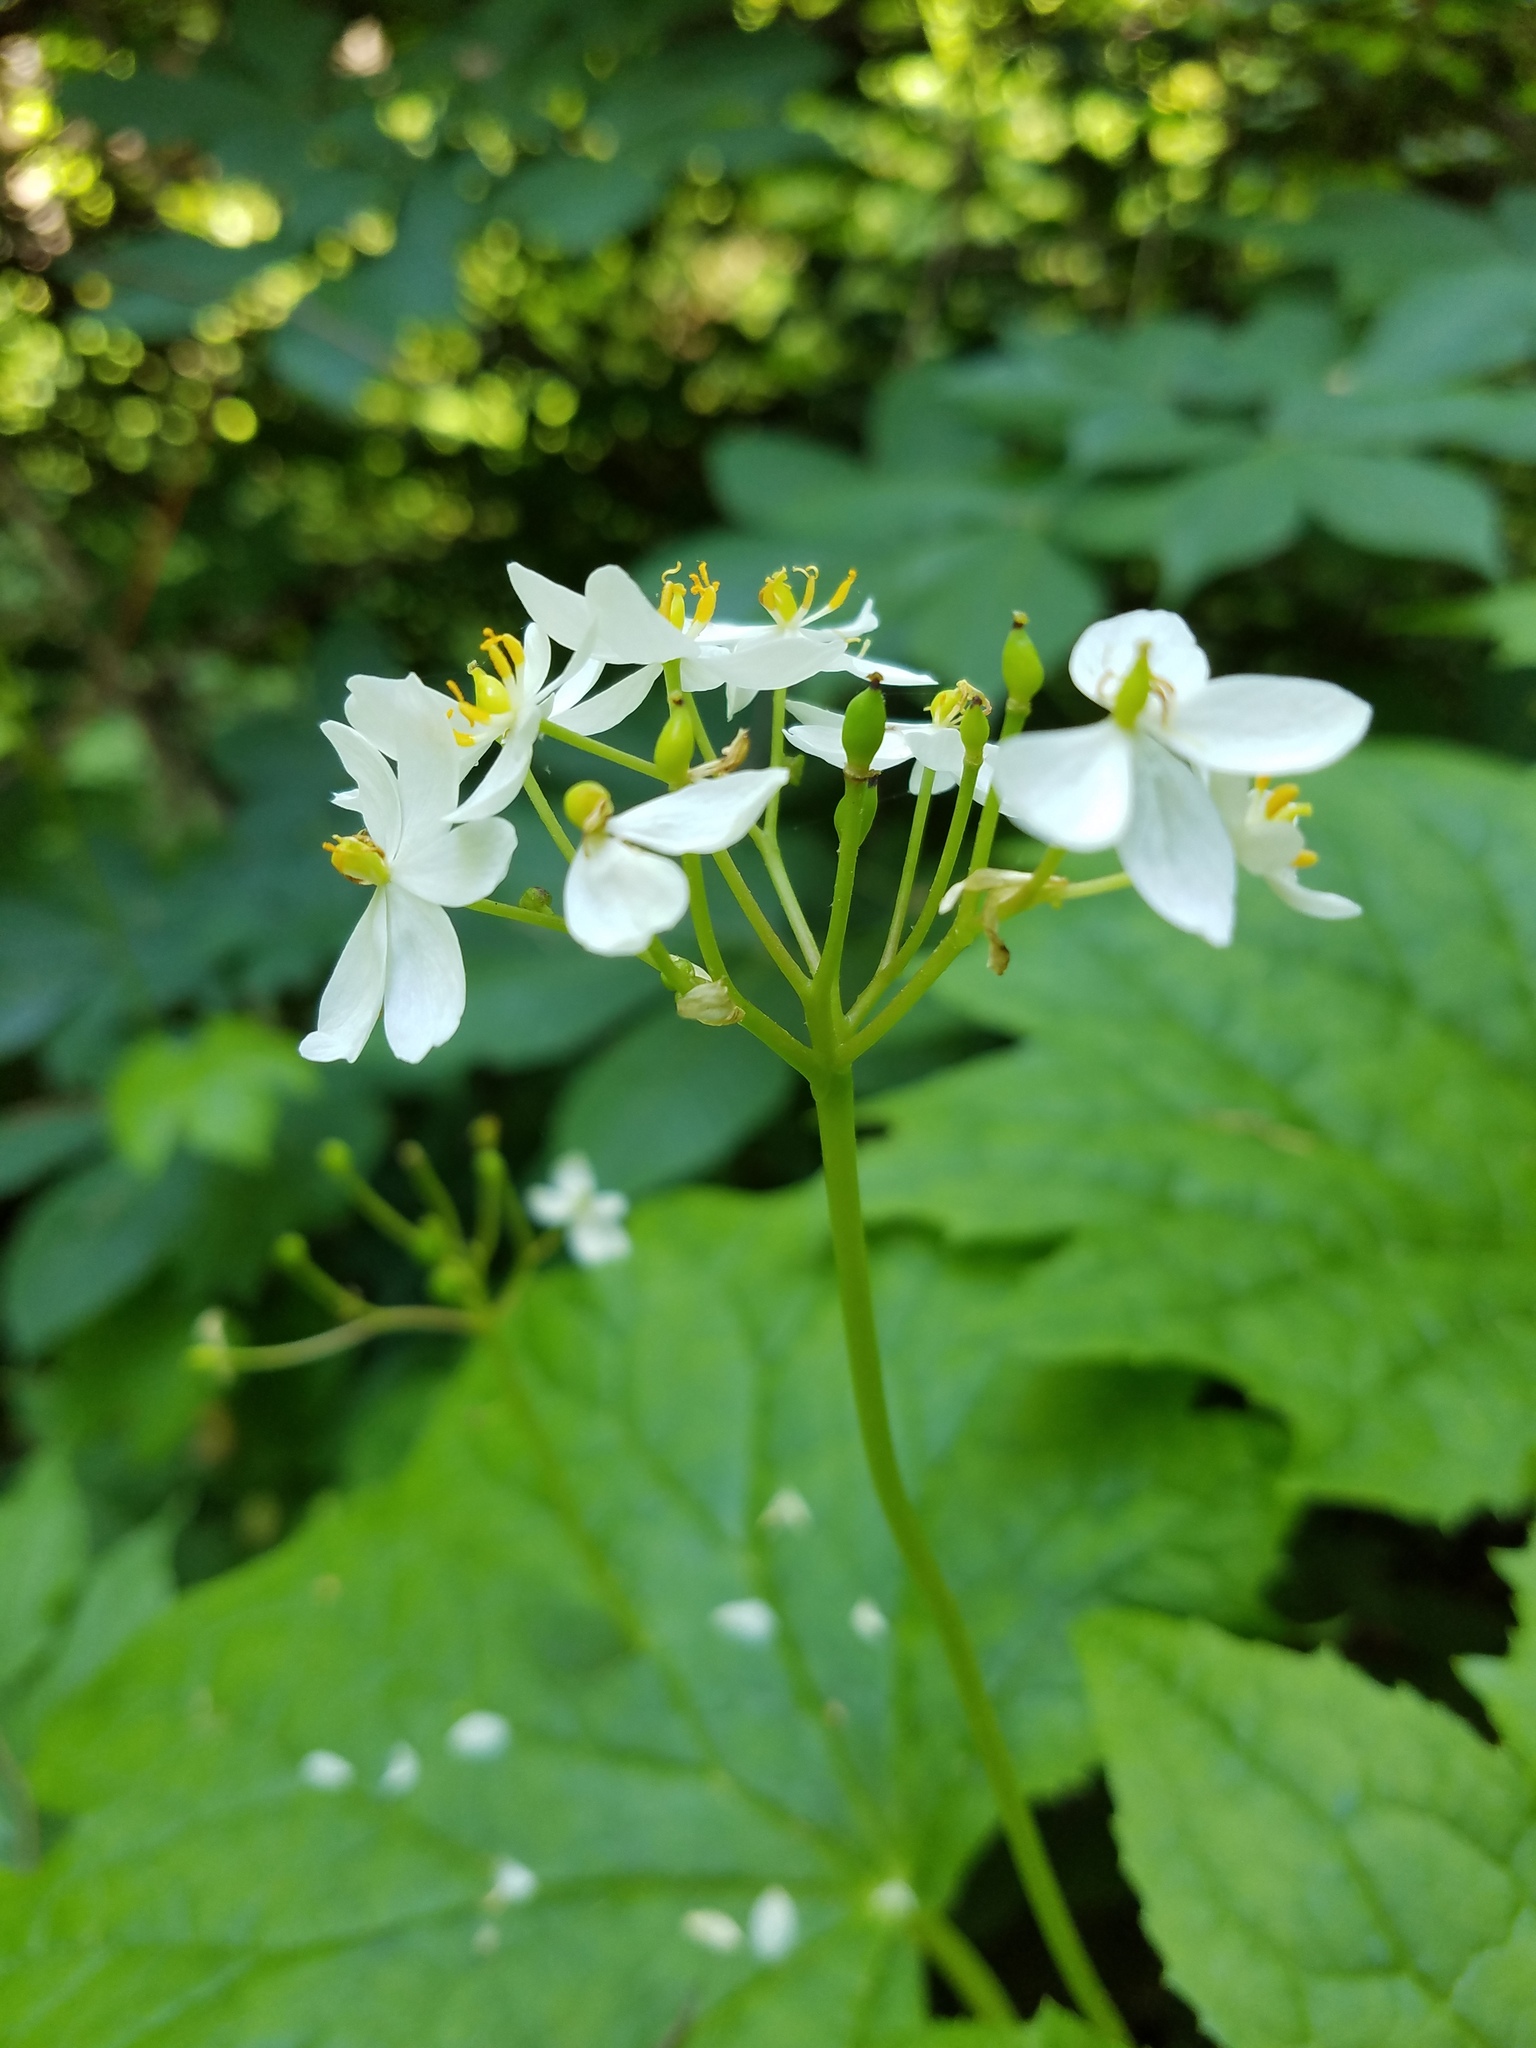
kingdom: Plantae
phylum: Tracheophyta
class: Magnoliopsida
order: Ranunculales
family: Berberidaceae
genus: Diphylleia
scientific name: Diphylleia cymosa
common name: Umbrella-leaf
